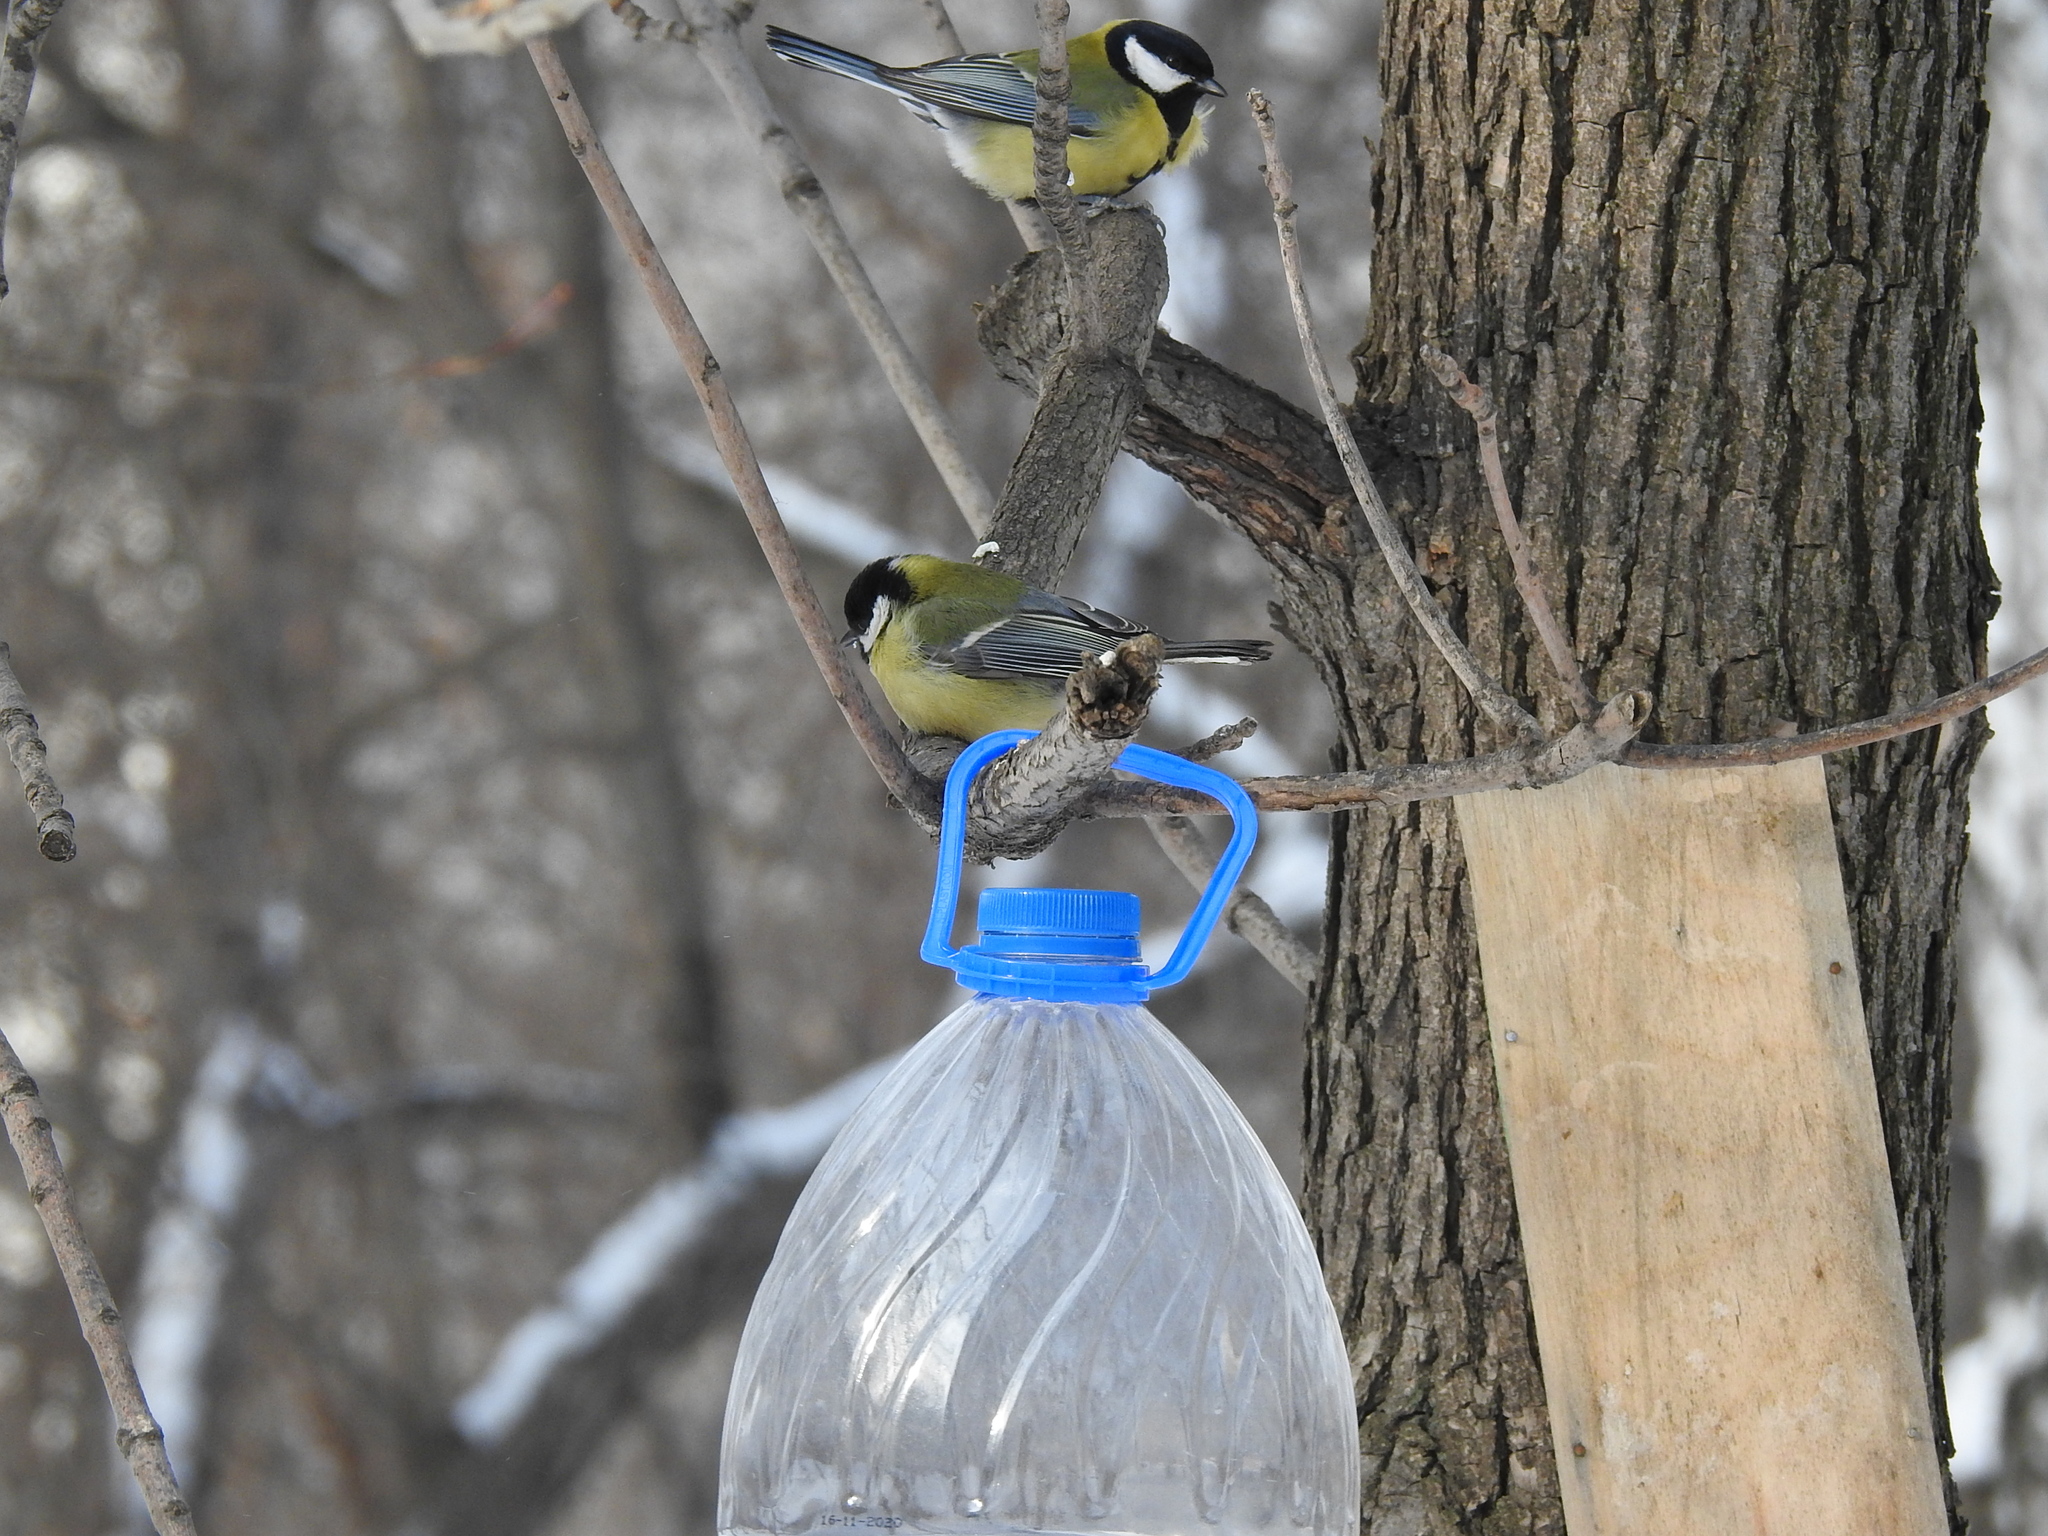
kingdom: Animalia
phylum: Chordata
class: Aves
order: Passeriformes
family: Paridae
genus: Parus
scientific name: Parus major
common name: Great tit
